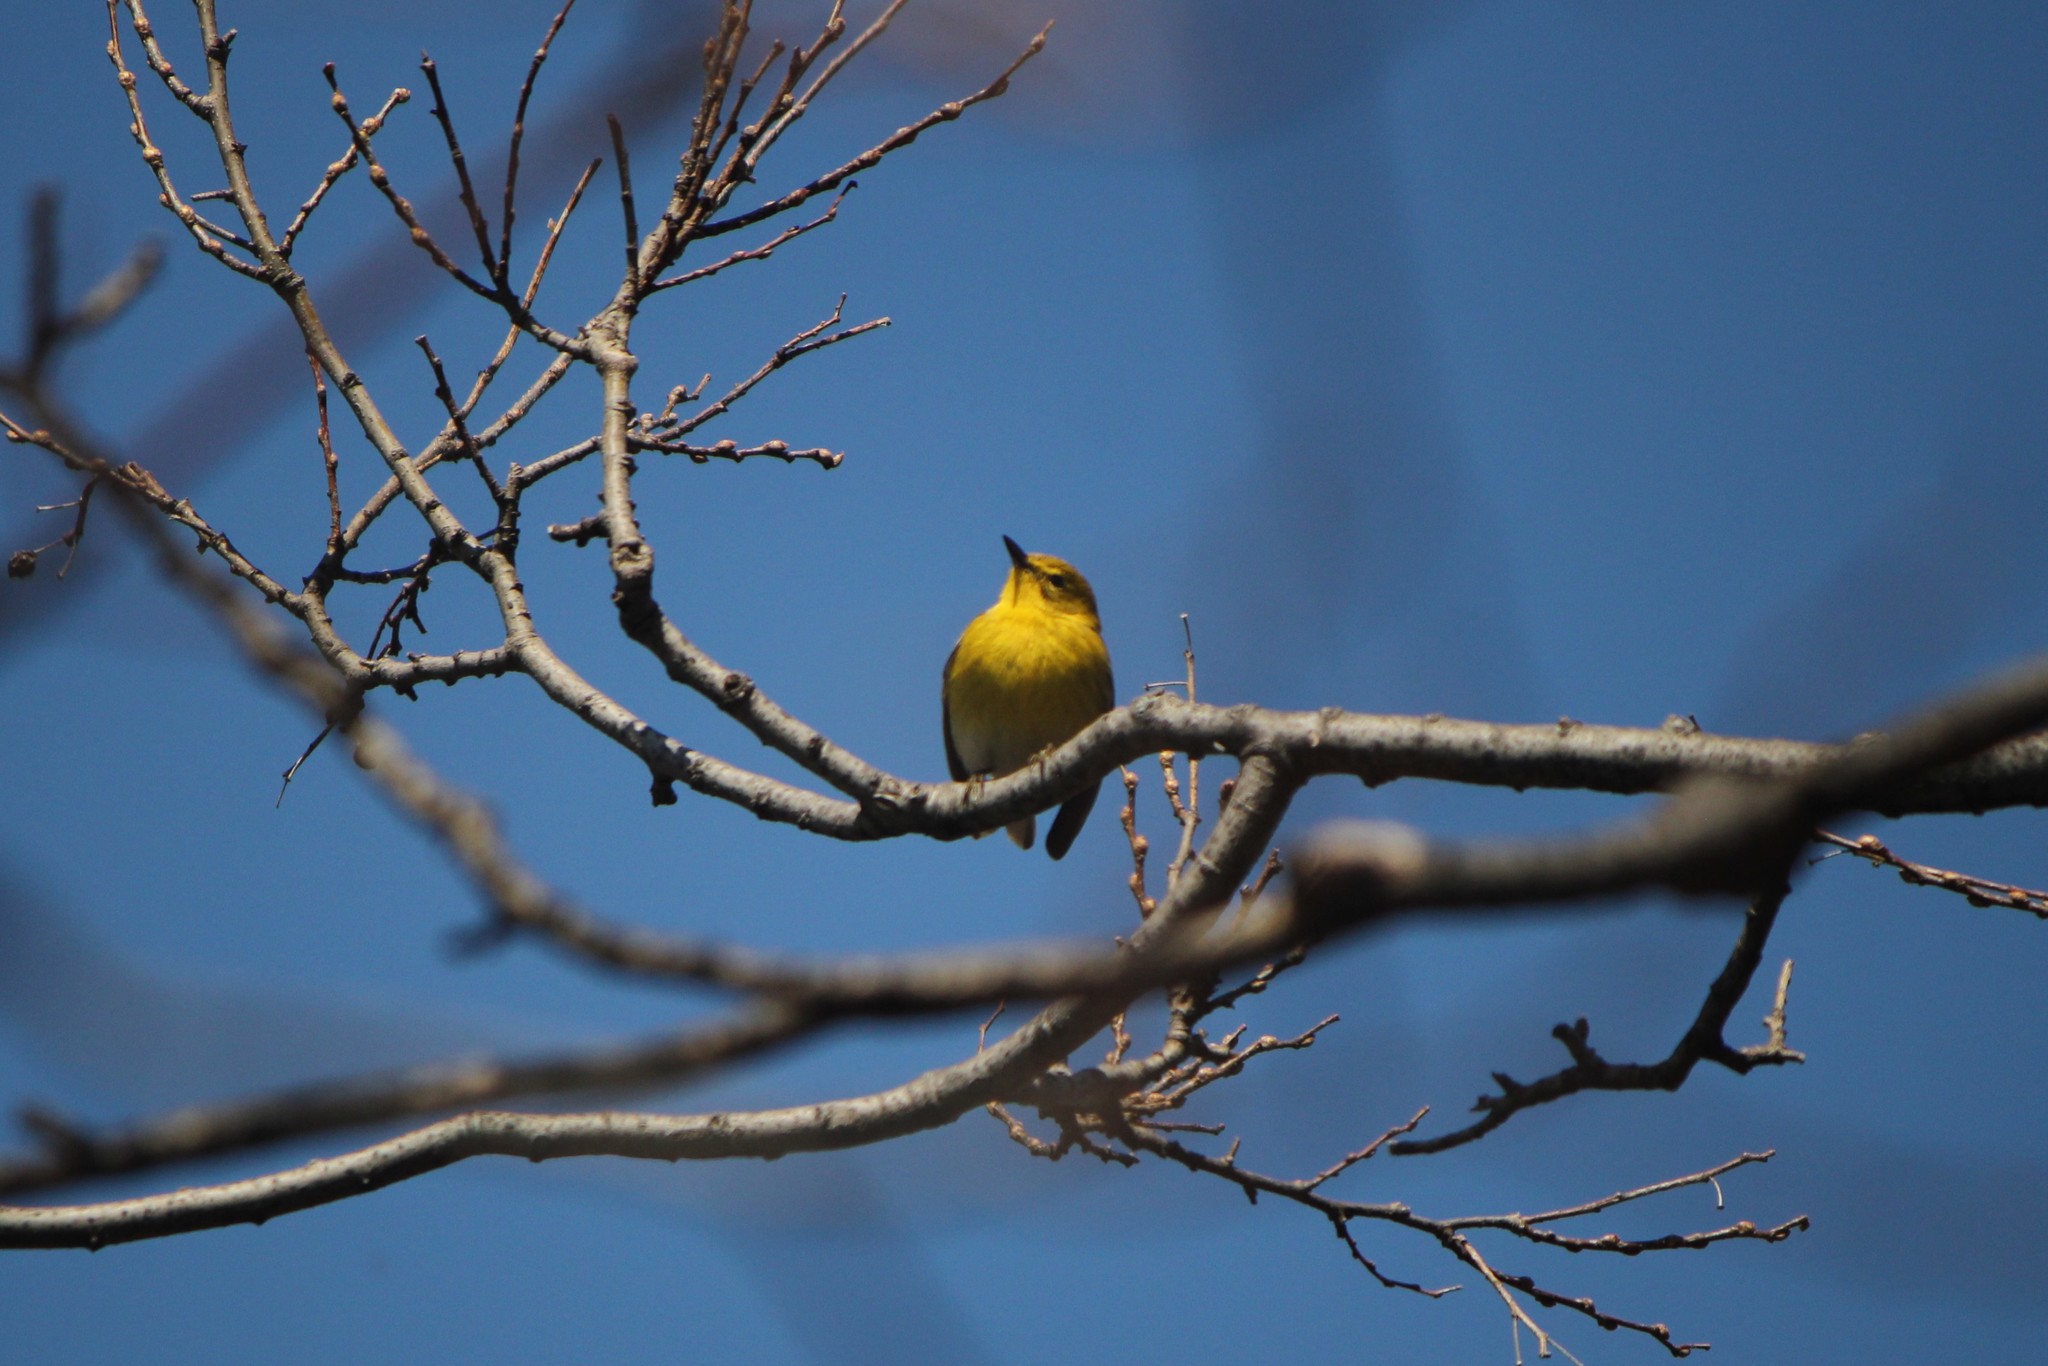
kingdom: Animalia
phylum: Chordata
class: Aves
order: Passeriformes
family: Parulidae
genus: Setophaga
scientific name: Setophaga pinus
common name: Pine warbler
